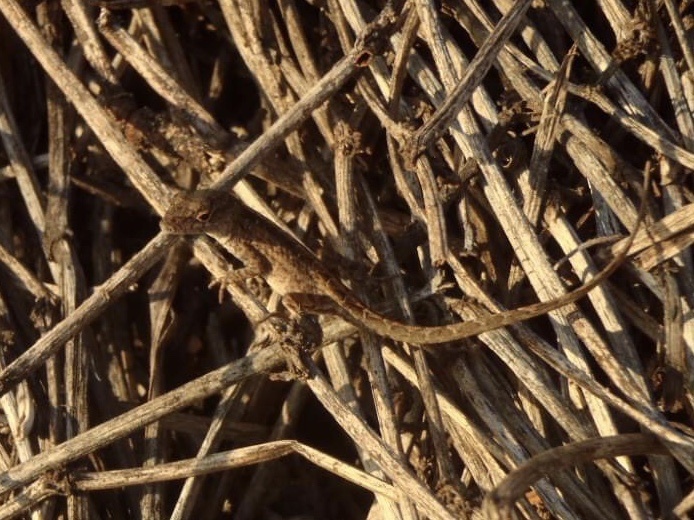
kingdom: Animalia
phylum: Chordata
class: Squamata
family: Dactyloidae
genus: Anolis
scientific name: Anolis sagrei
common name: Brown anole
